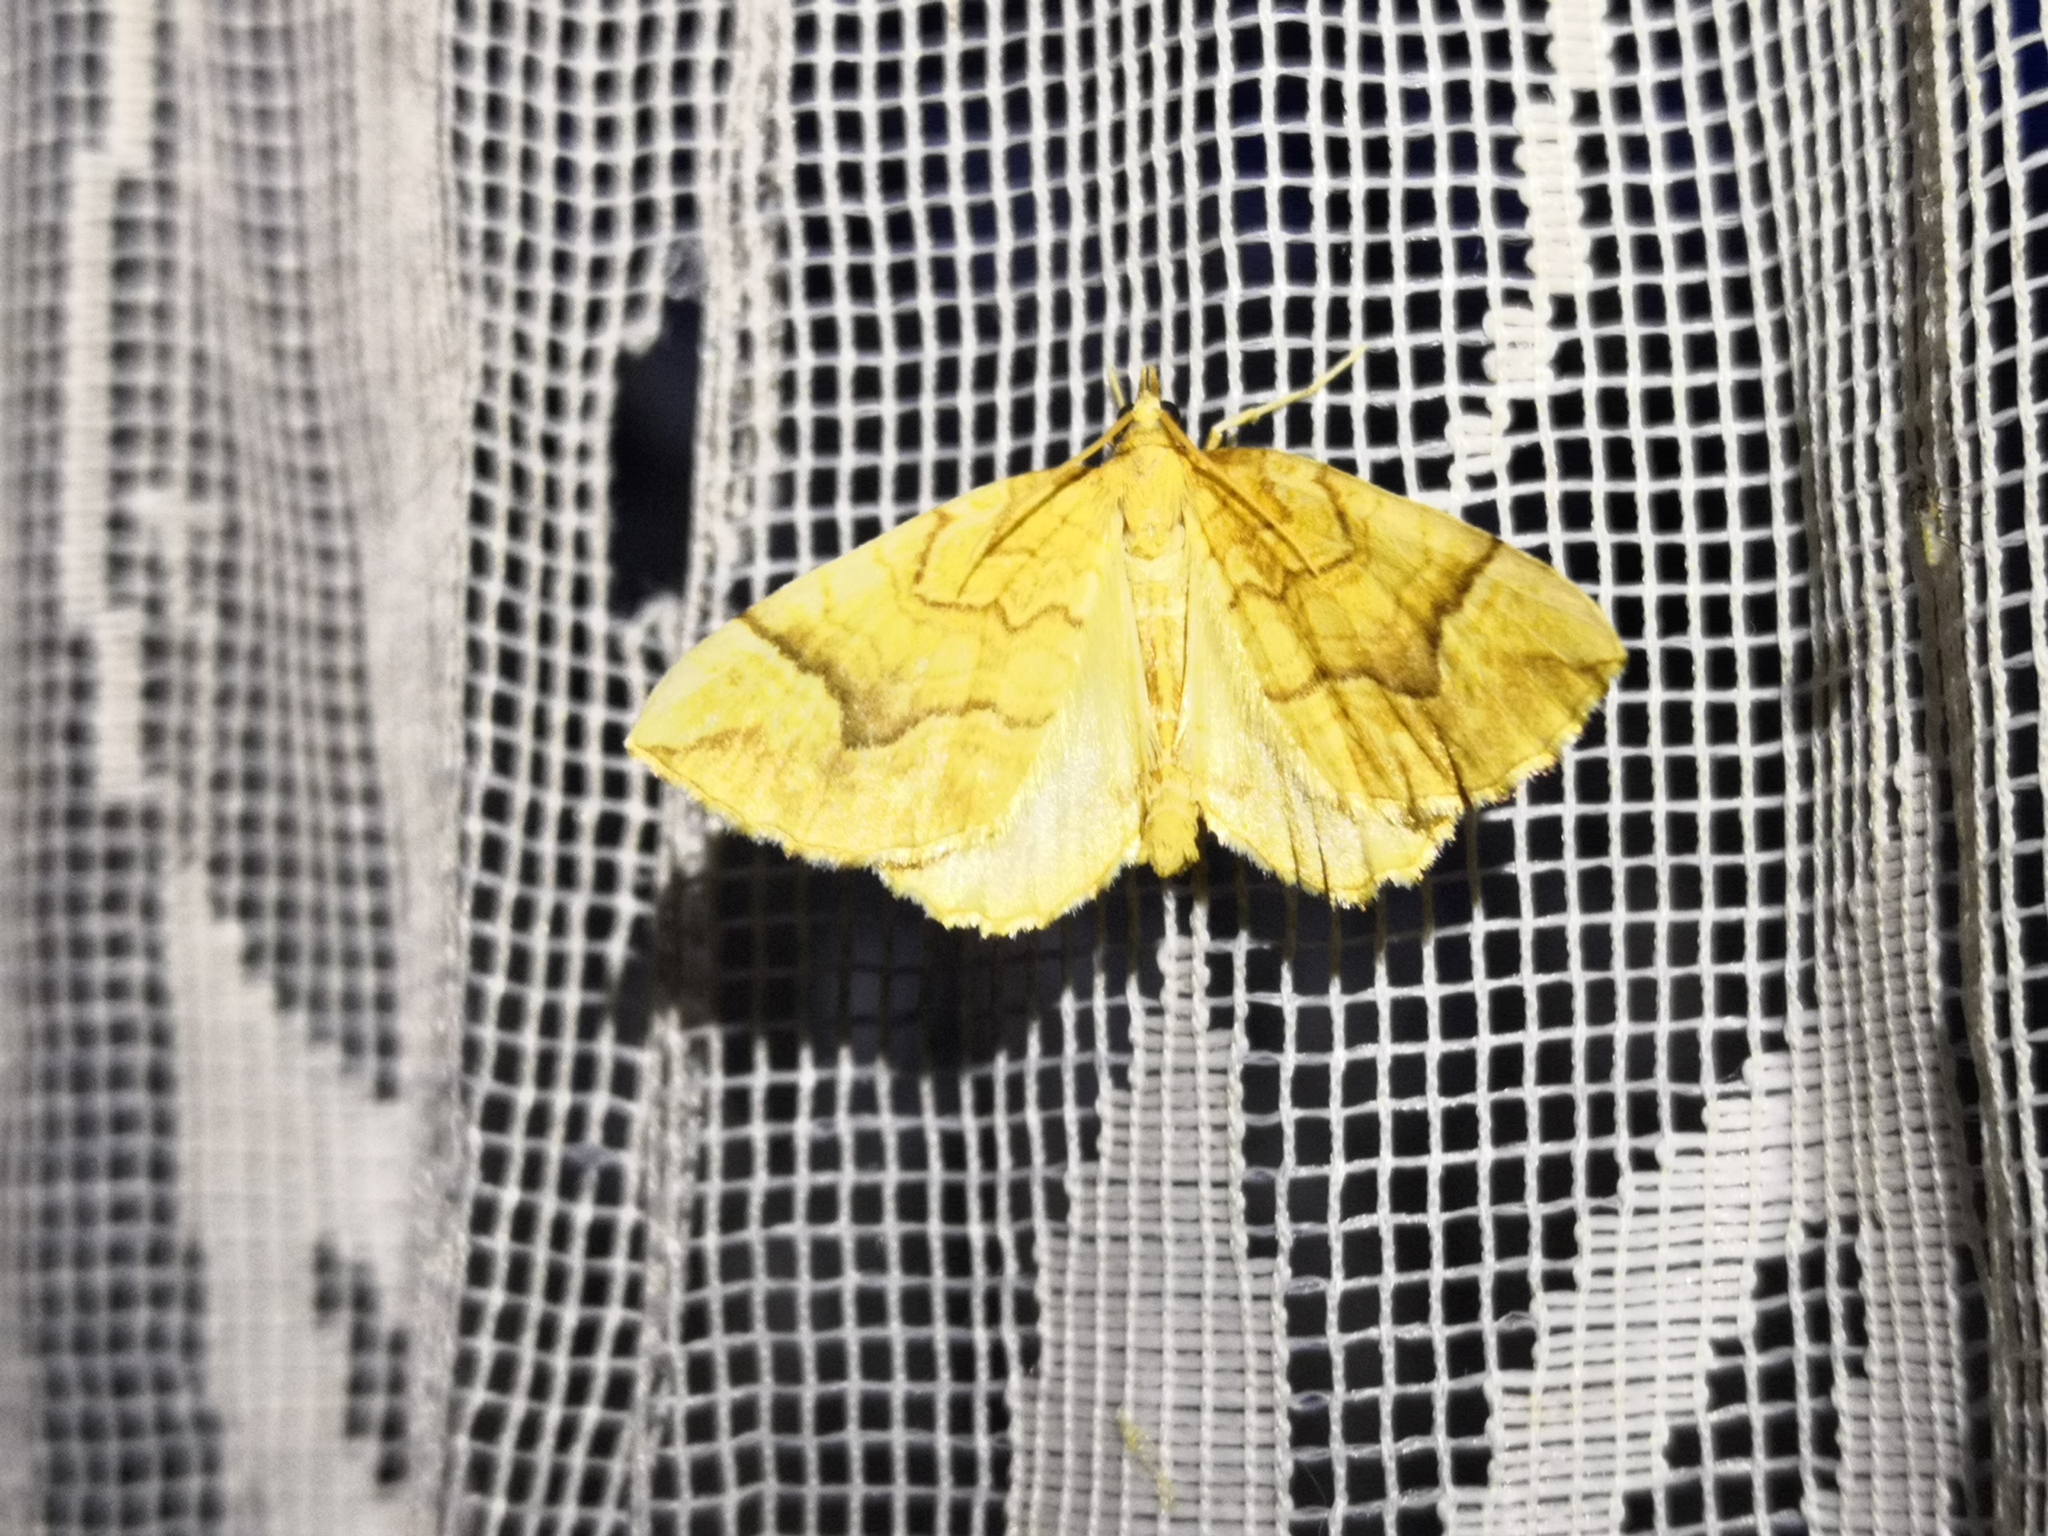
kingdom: Animalia
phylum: Arthropoda
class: Insecta
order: Lepidoptera
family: Geometridae
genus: Eulithis
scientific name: Eulithis mellinata
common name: Spinach
